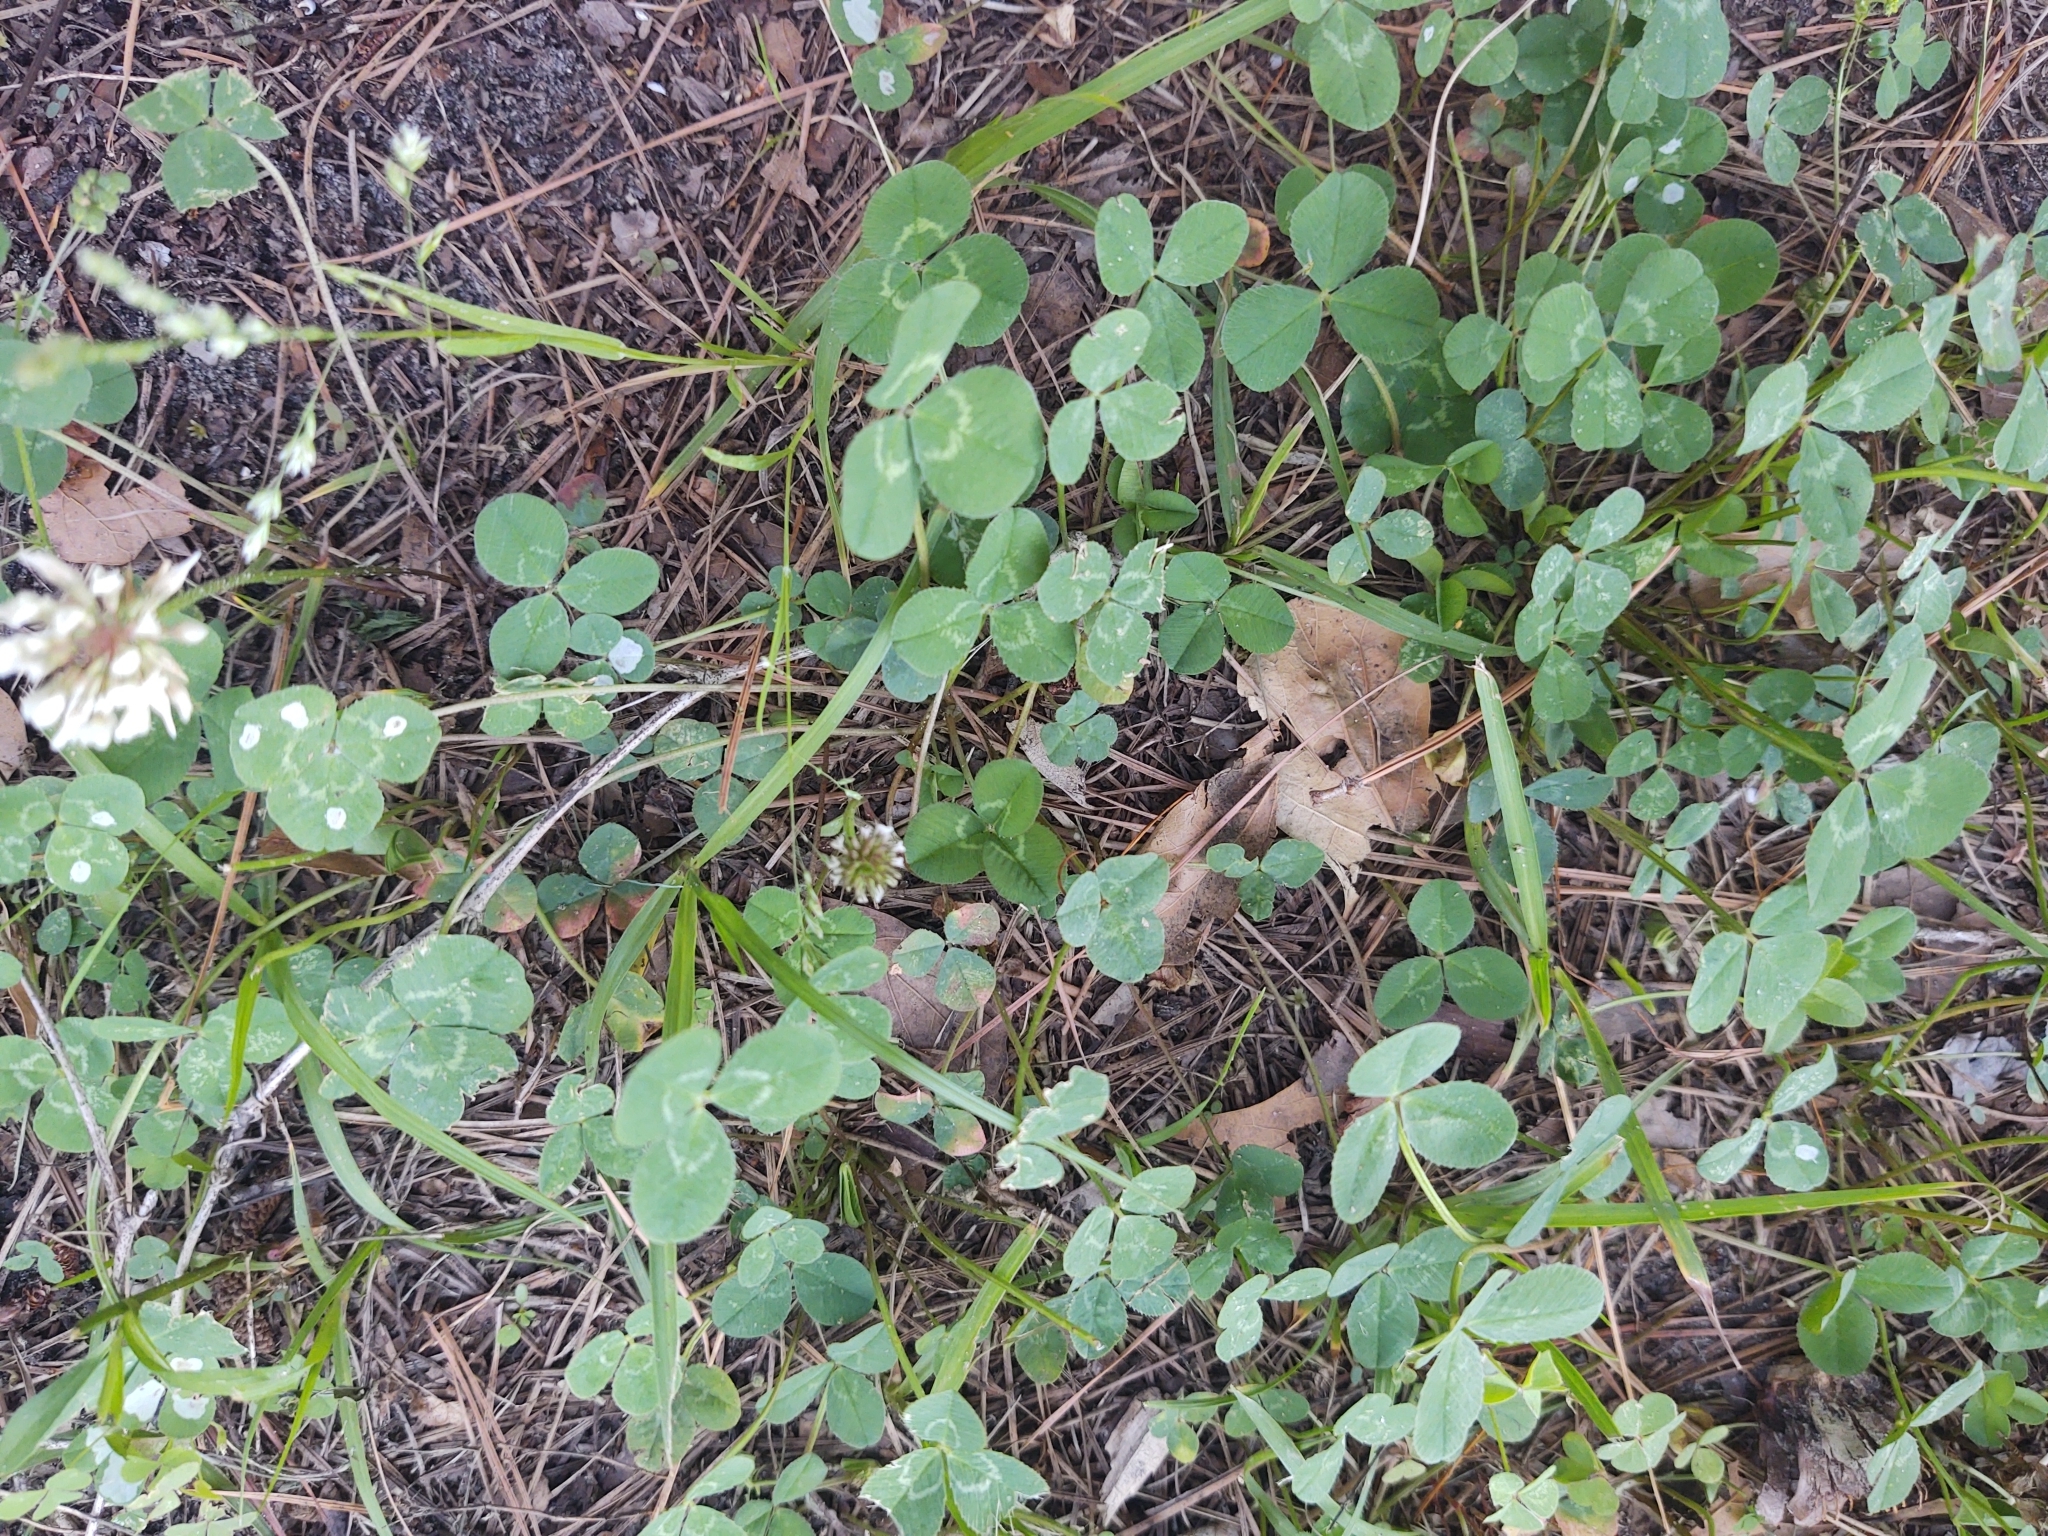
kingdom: Plantae
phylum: Tracheophyta
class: Magnoliopsida
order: Fabales
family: Fabaceae
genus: Trifolium
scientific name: Trifolium repens
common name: White clover
